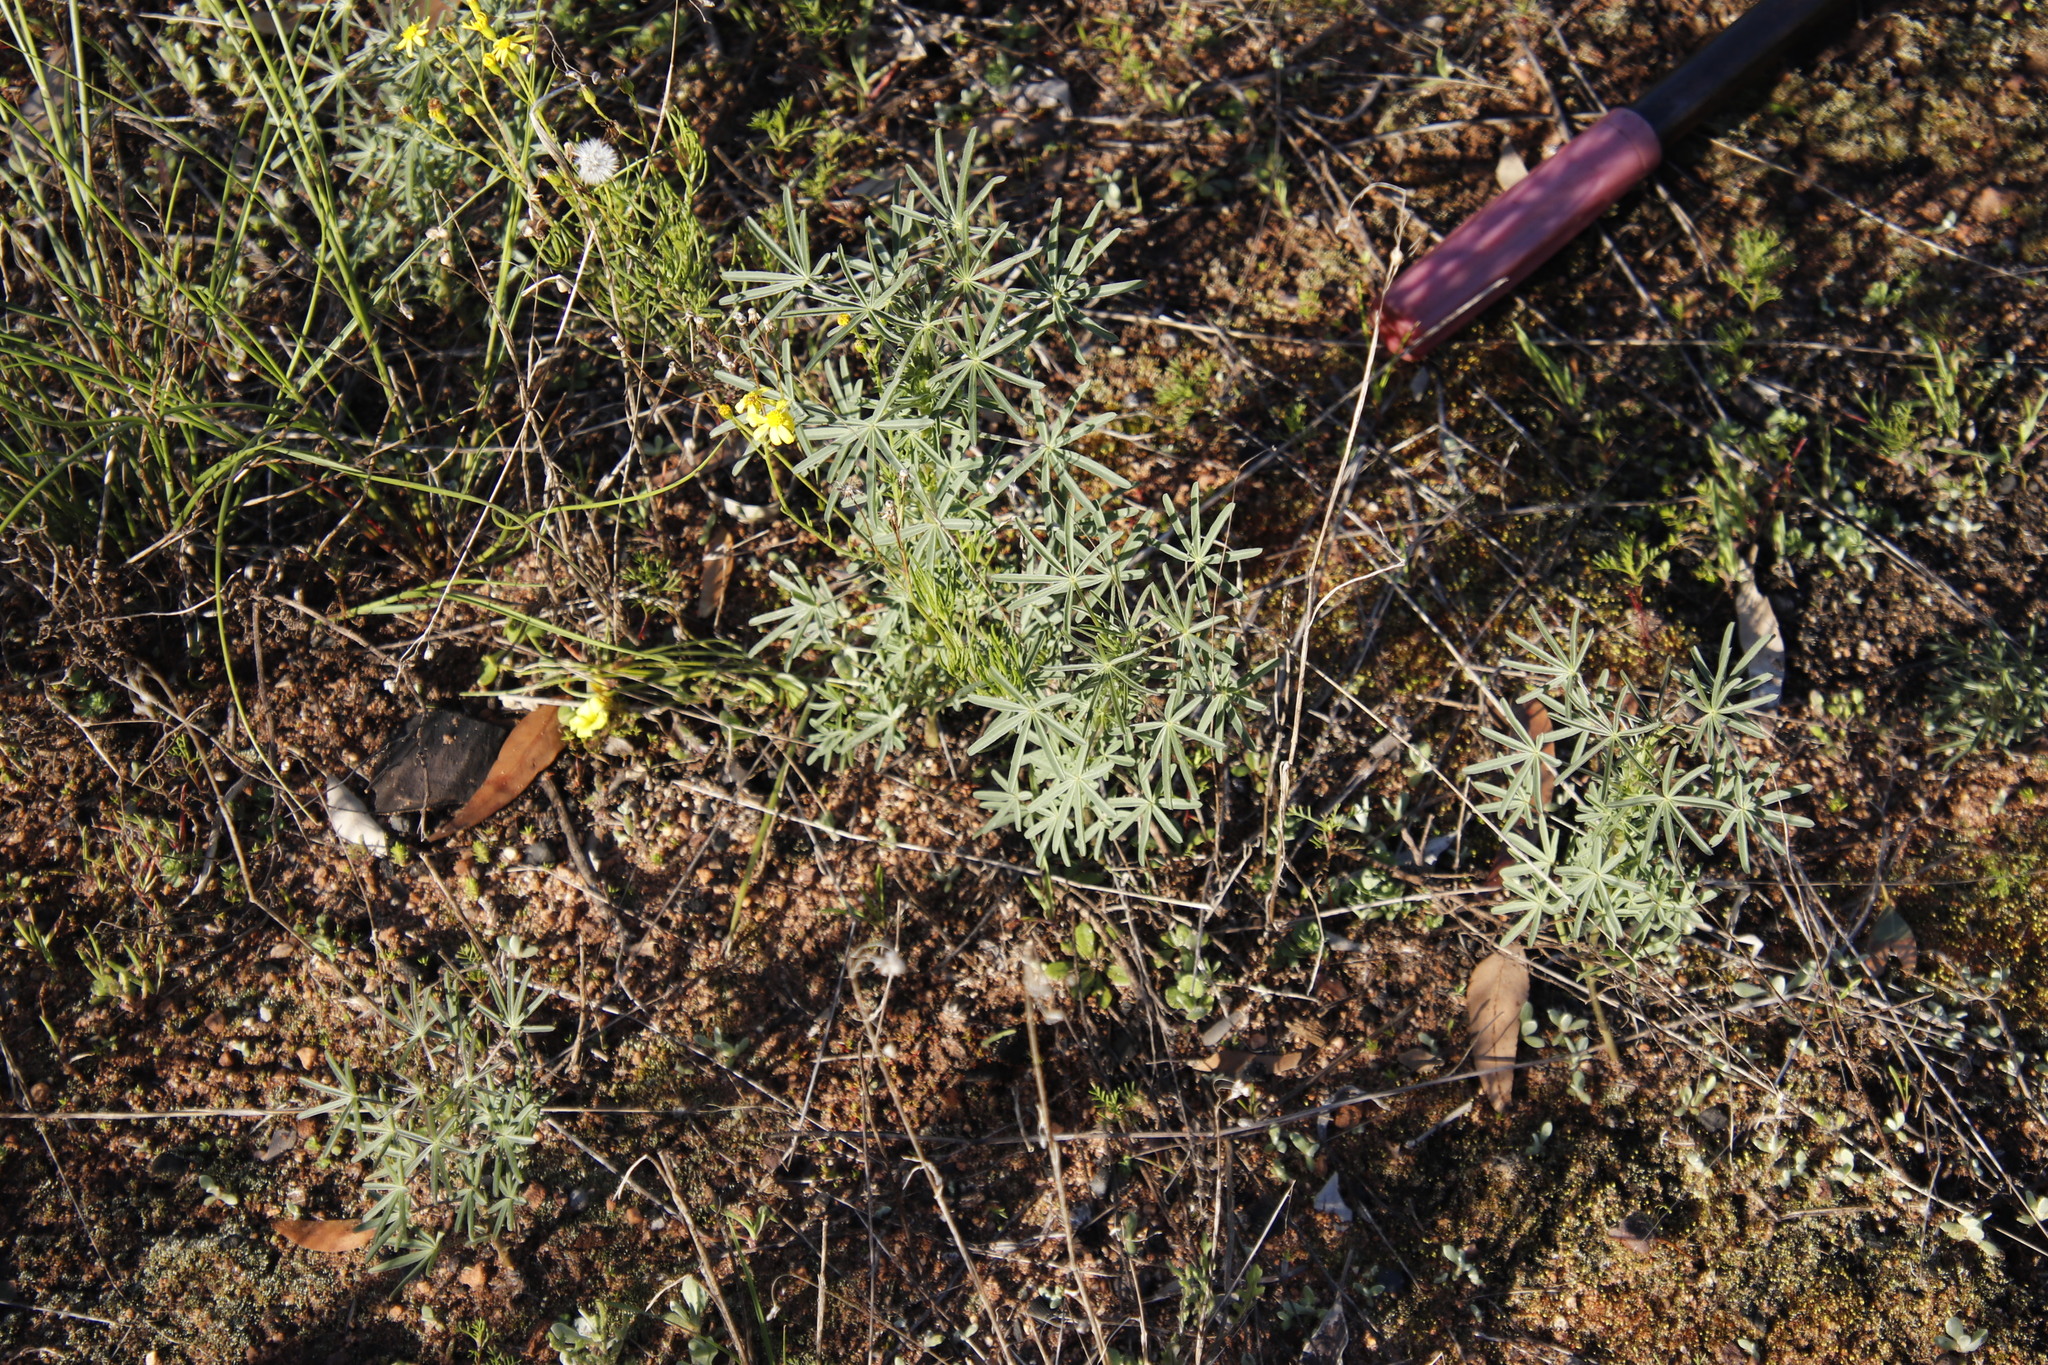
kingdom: Plantae
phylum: Tracheophyta
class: Magnoliopsida
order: Fabales
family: Fabaceae
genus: Lupinus
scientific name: Lupinus angustifolius
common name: Narrow-leaved lupin
